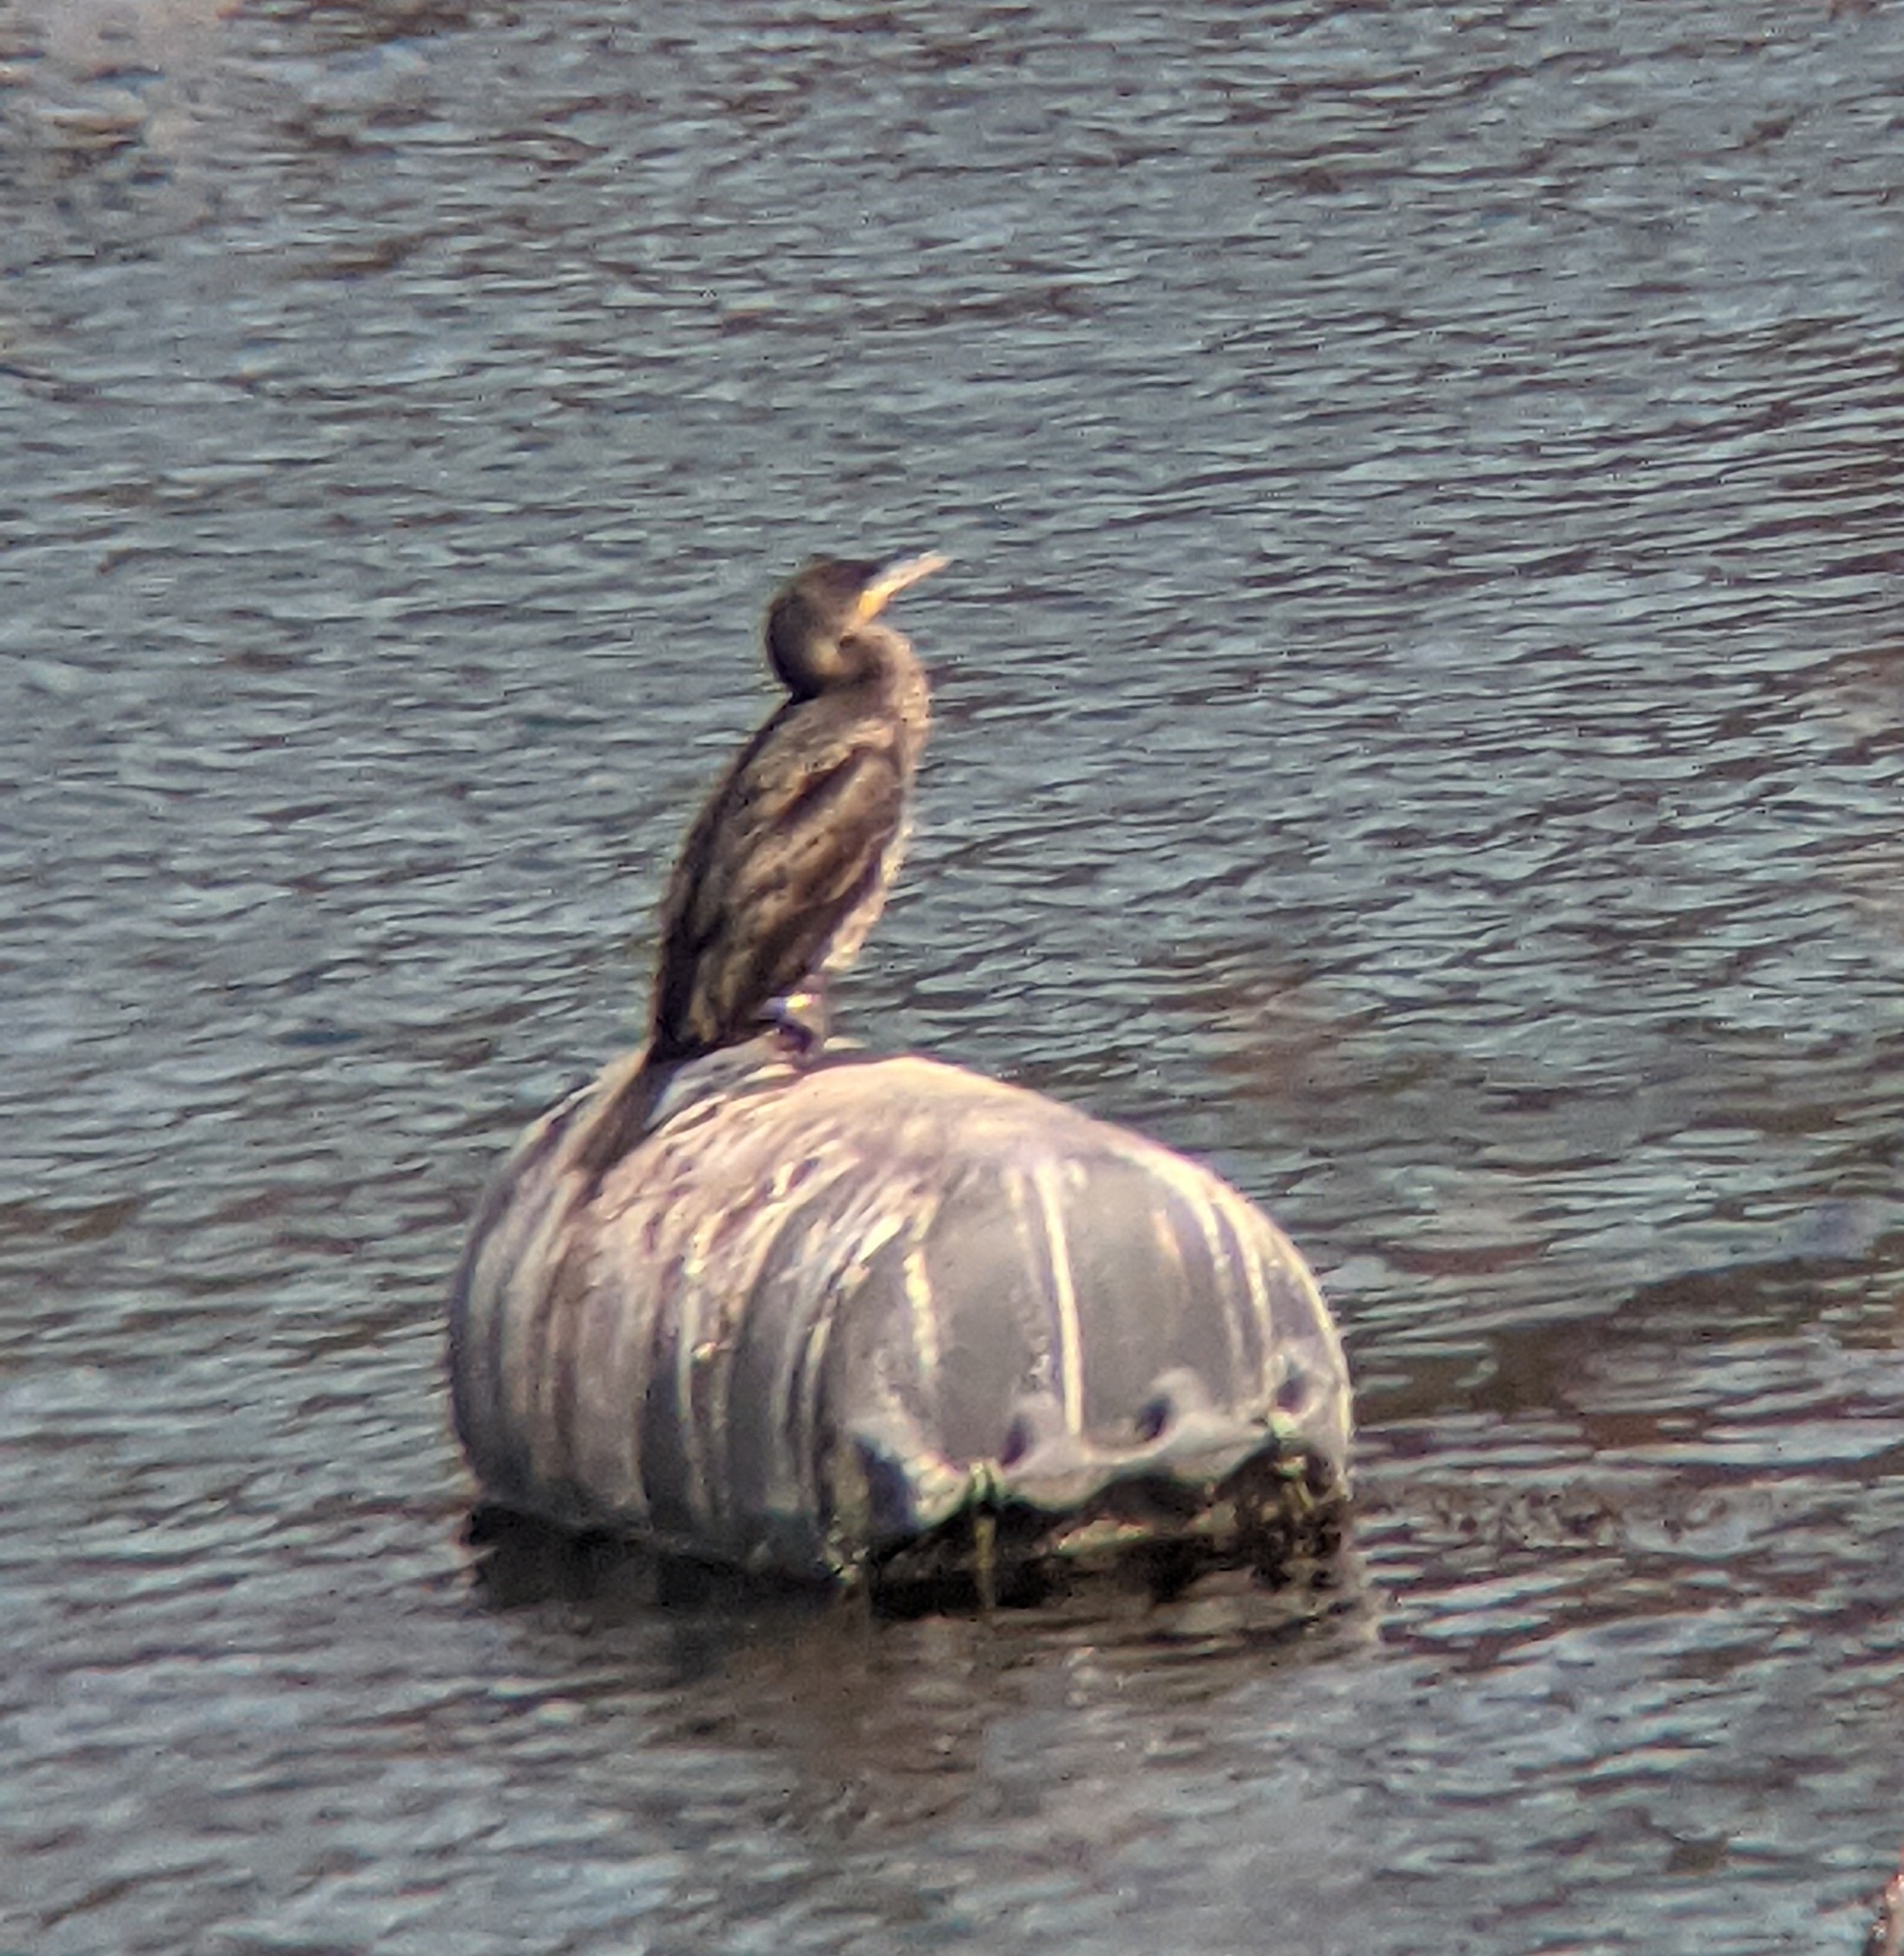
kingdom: Animalia
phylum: Chordata
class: Aves
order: Suliformes
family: Phalacrocoracidae
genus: Phalacrocorax
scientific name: Phalacrocorax carbo
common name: Great cormorant
